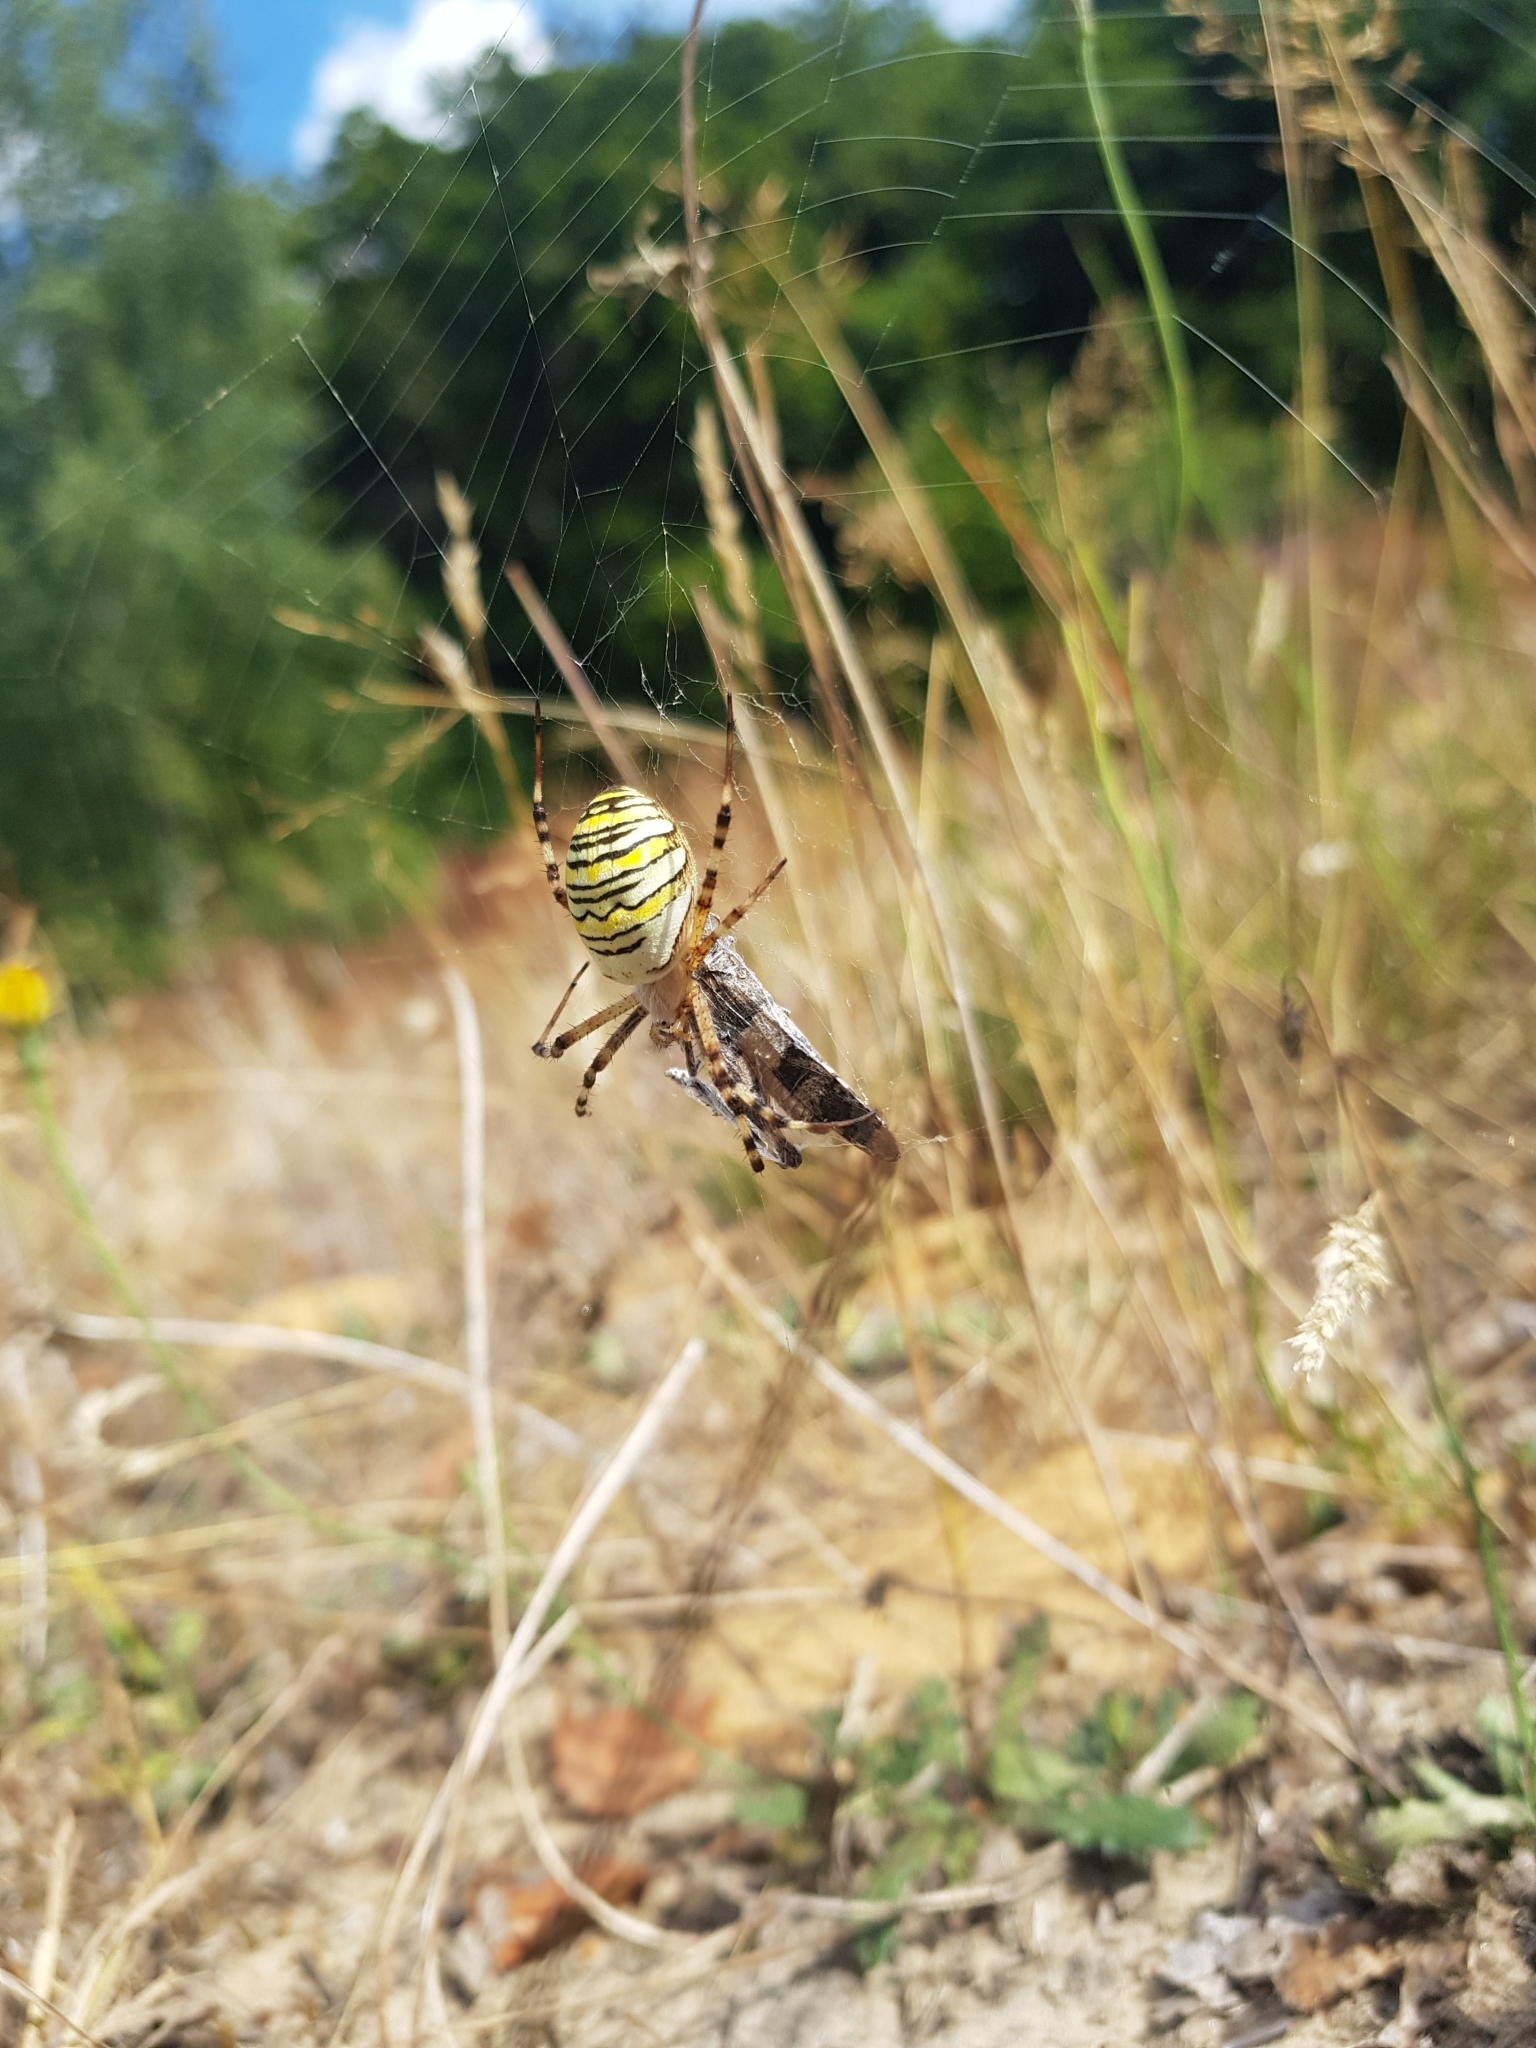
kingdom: Animalia
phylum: Arthropoda
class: Arachnida
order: Araneae
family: Araneidae
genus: Argiope
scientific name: Argiope bruennichi
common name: Wasp spider
